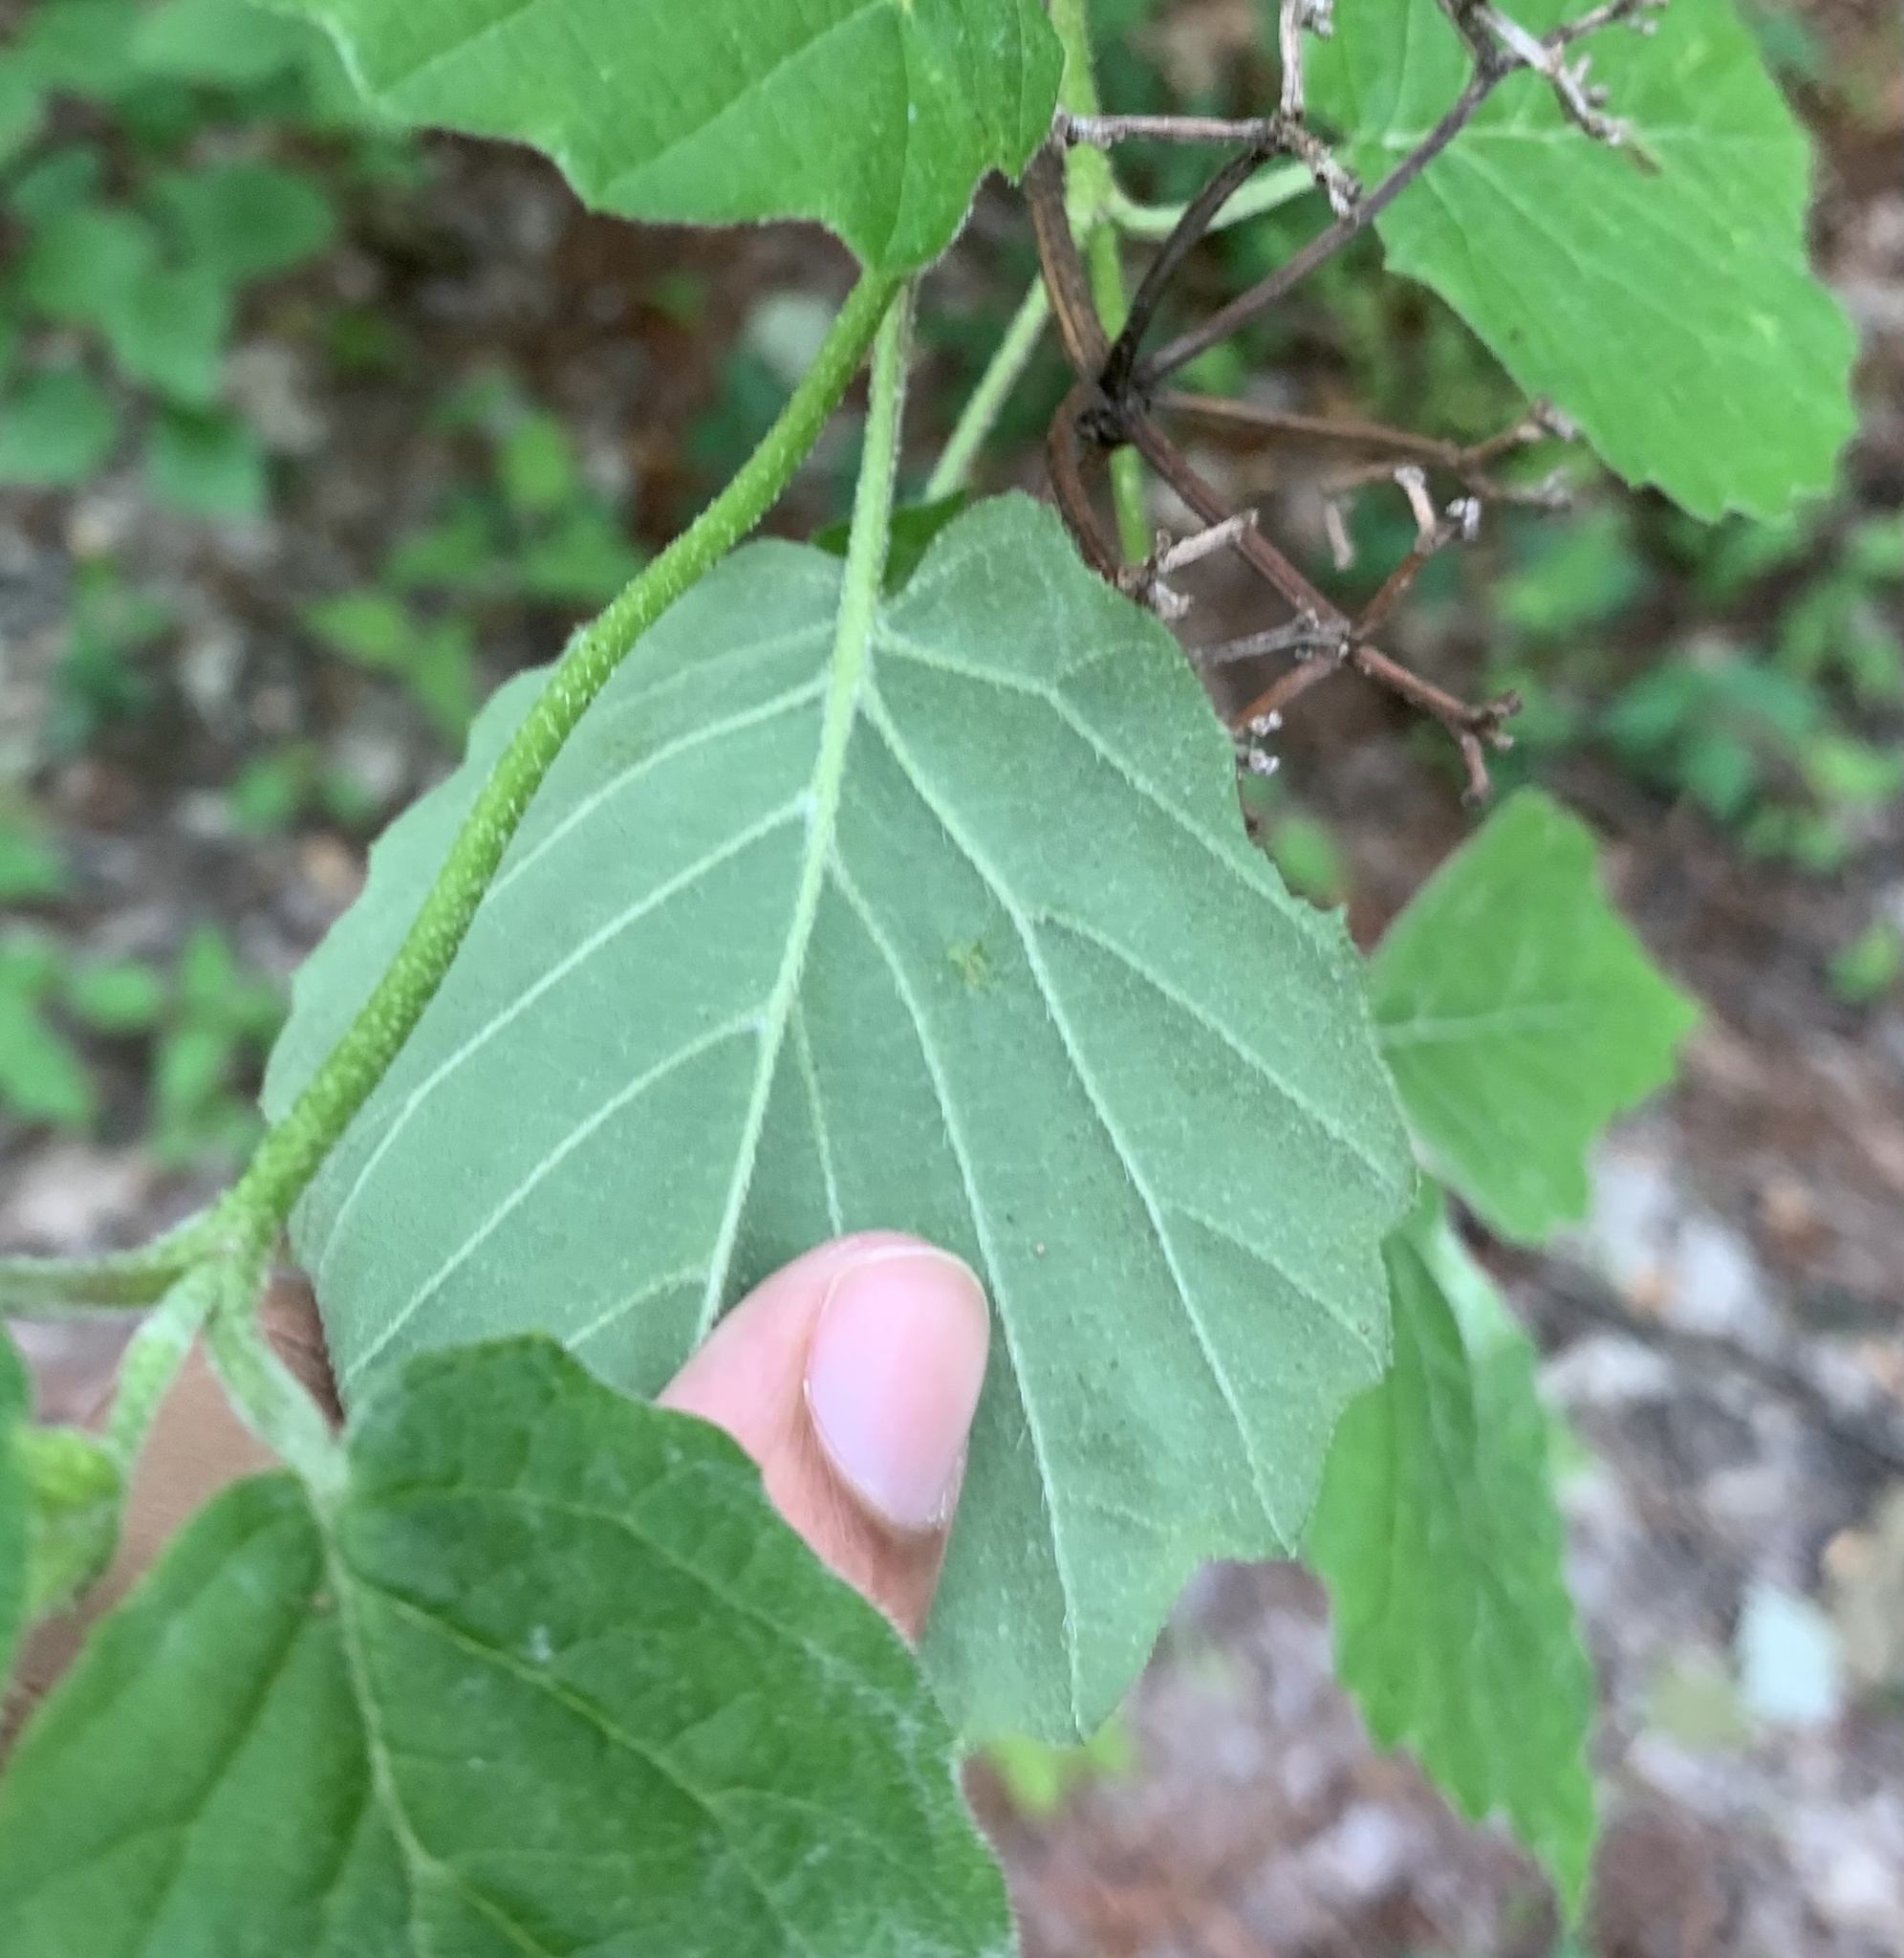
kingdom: Plantae
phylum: Tracheophyta
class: Magnoliopsida
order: Dipsacales
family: Viburnaceae
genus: Viburnum
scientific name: Viburnum dentatum
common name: Arrow-wood
